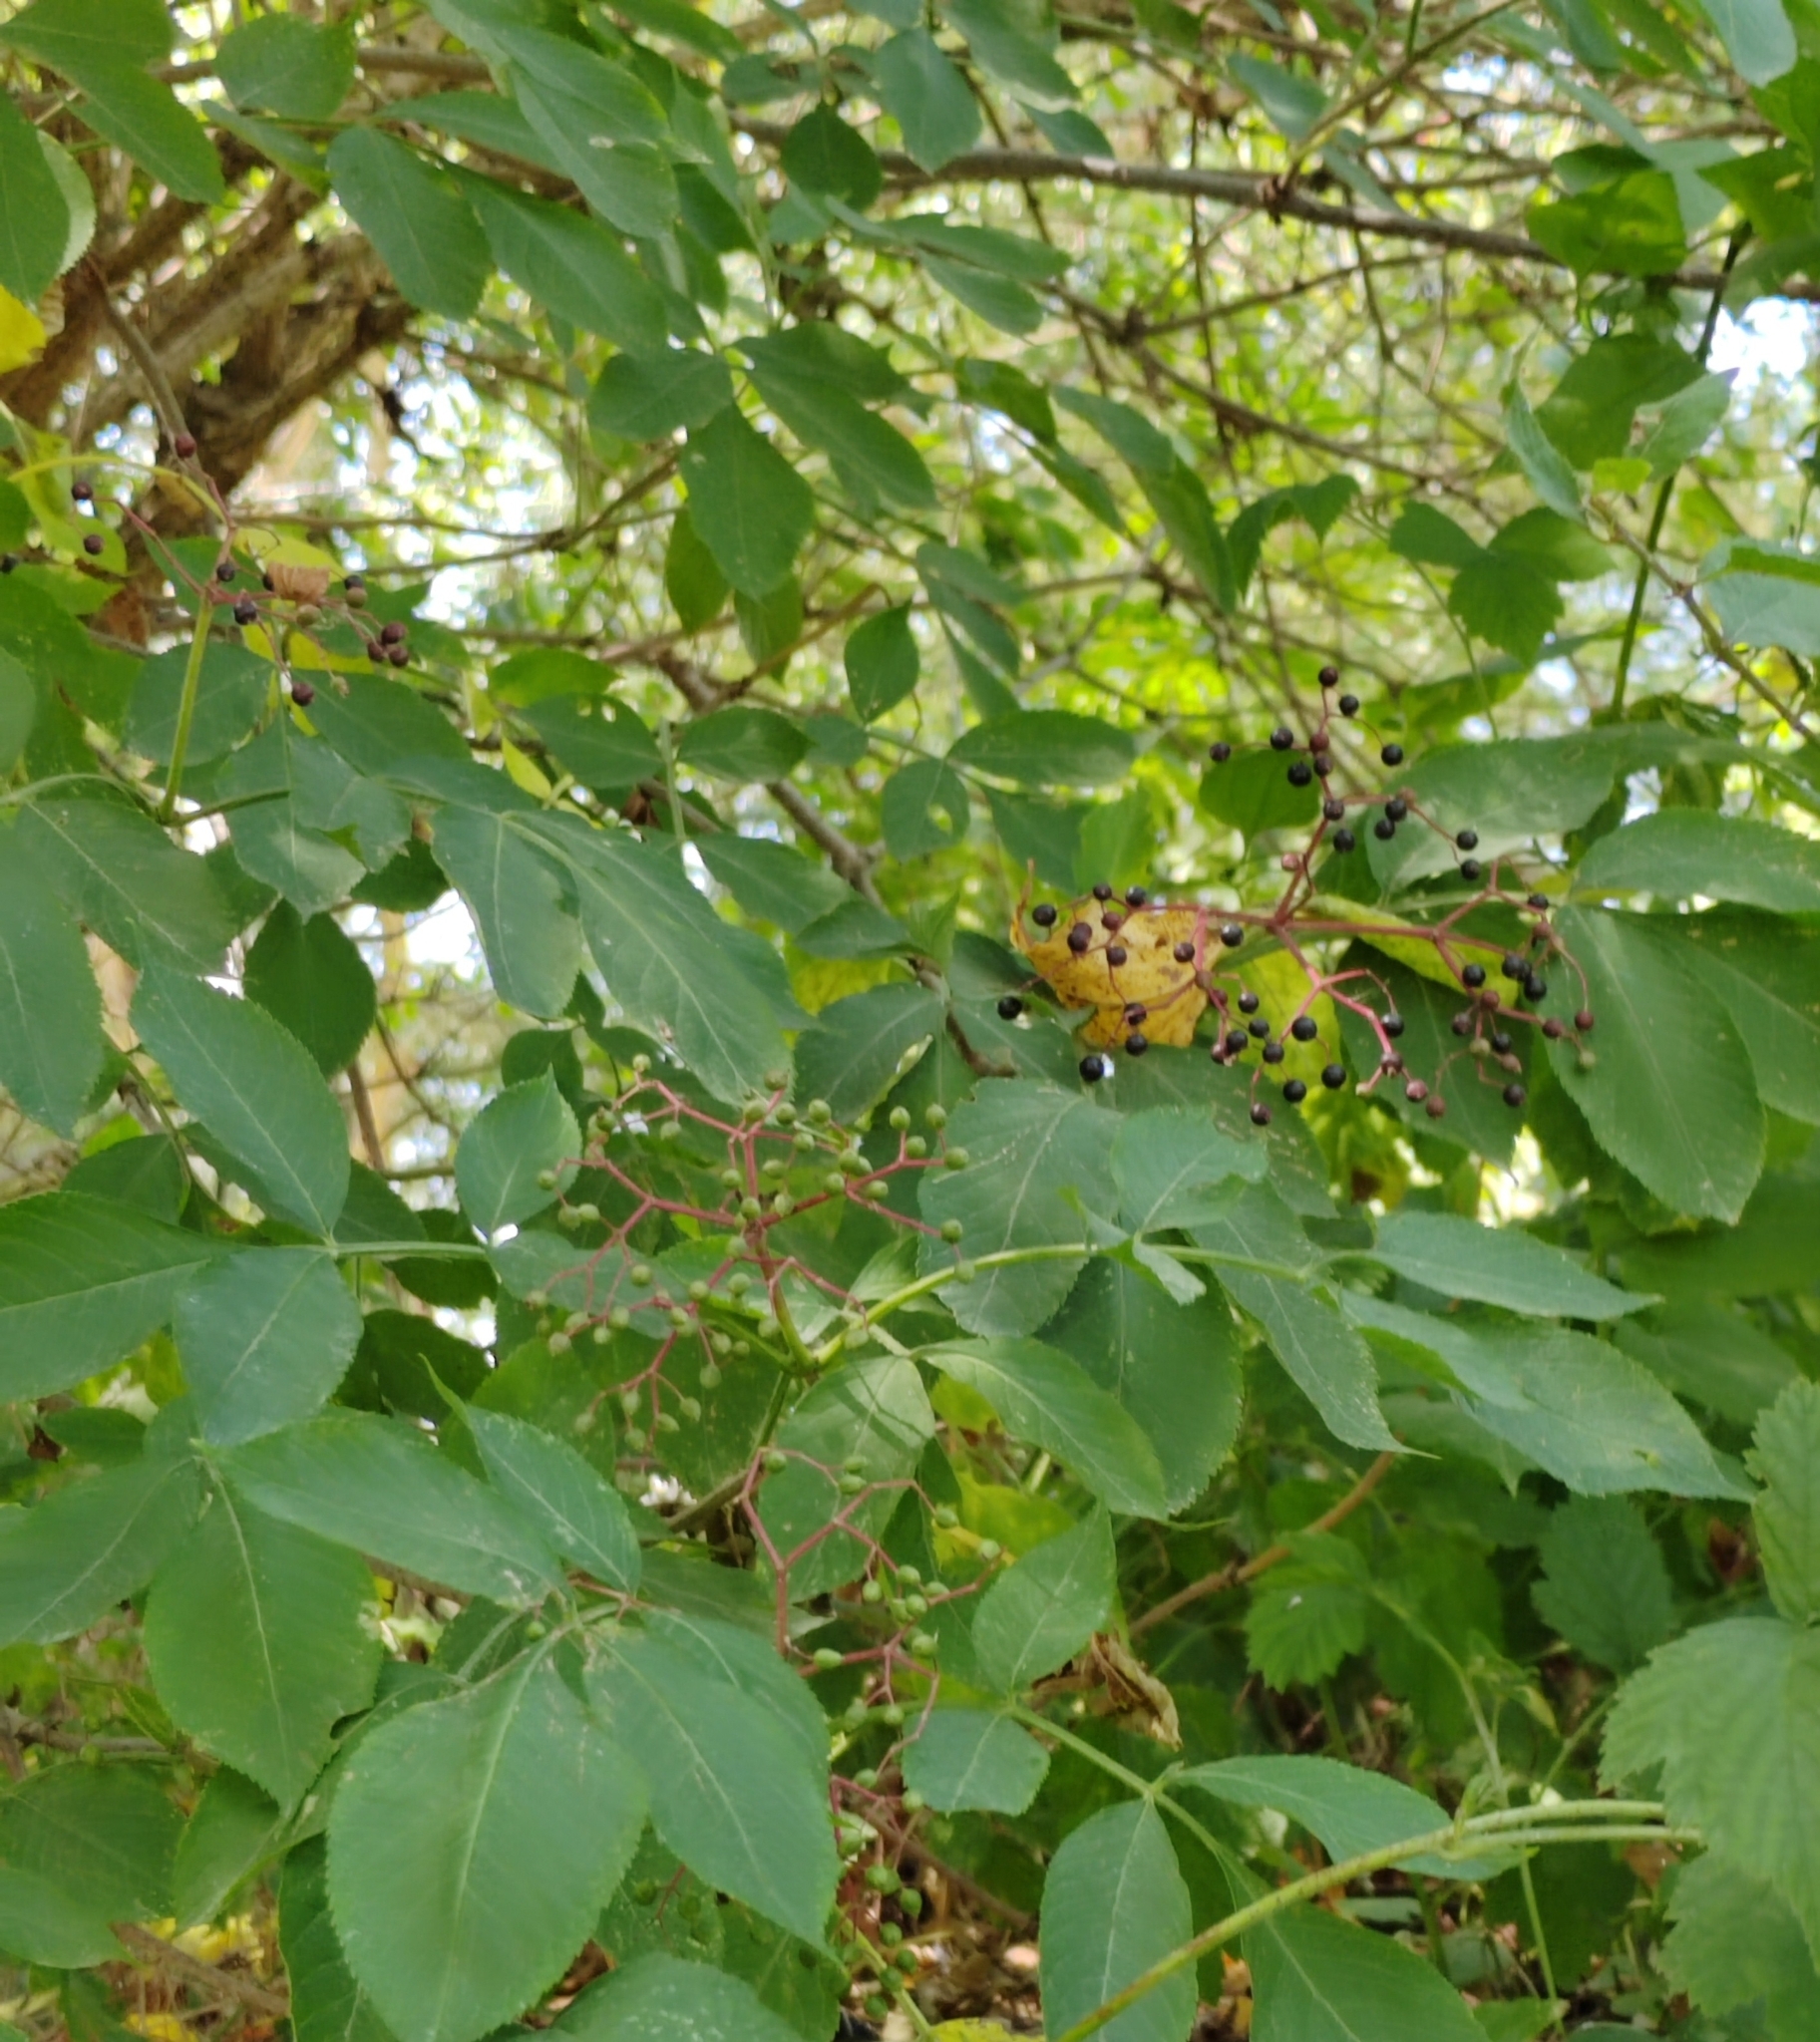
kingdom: Plantae
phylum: Tracheophyta
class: Magnoliopsida
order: Dipsacales
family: Viburnaceae
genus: Sambucus
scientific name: Sambucus nigra
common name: Elder
